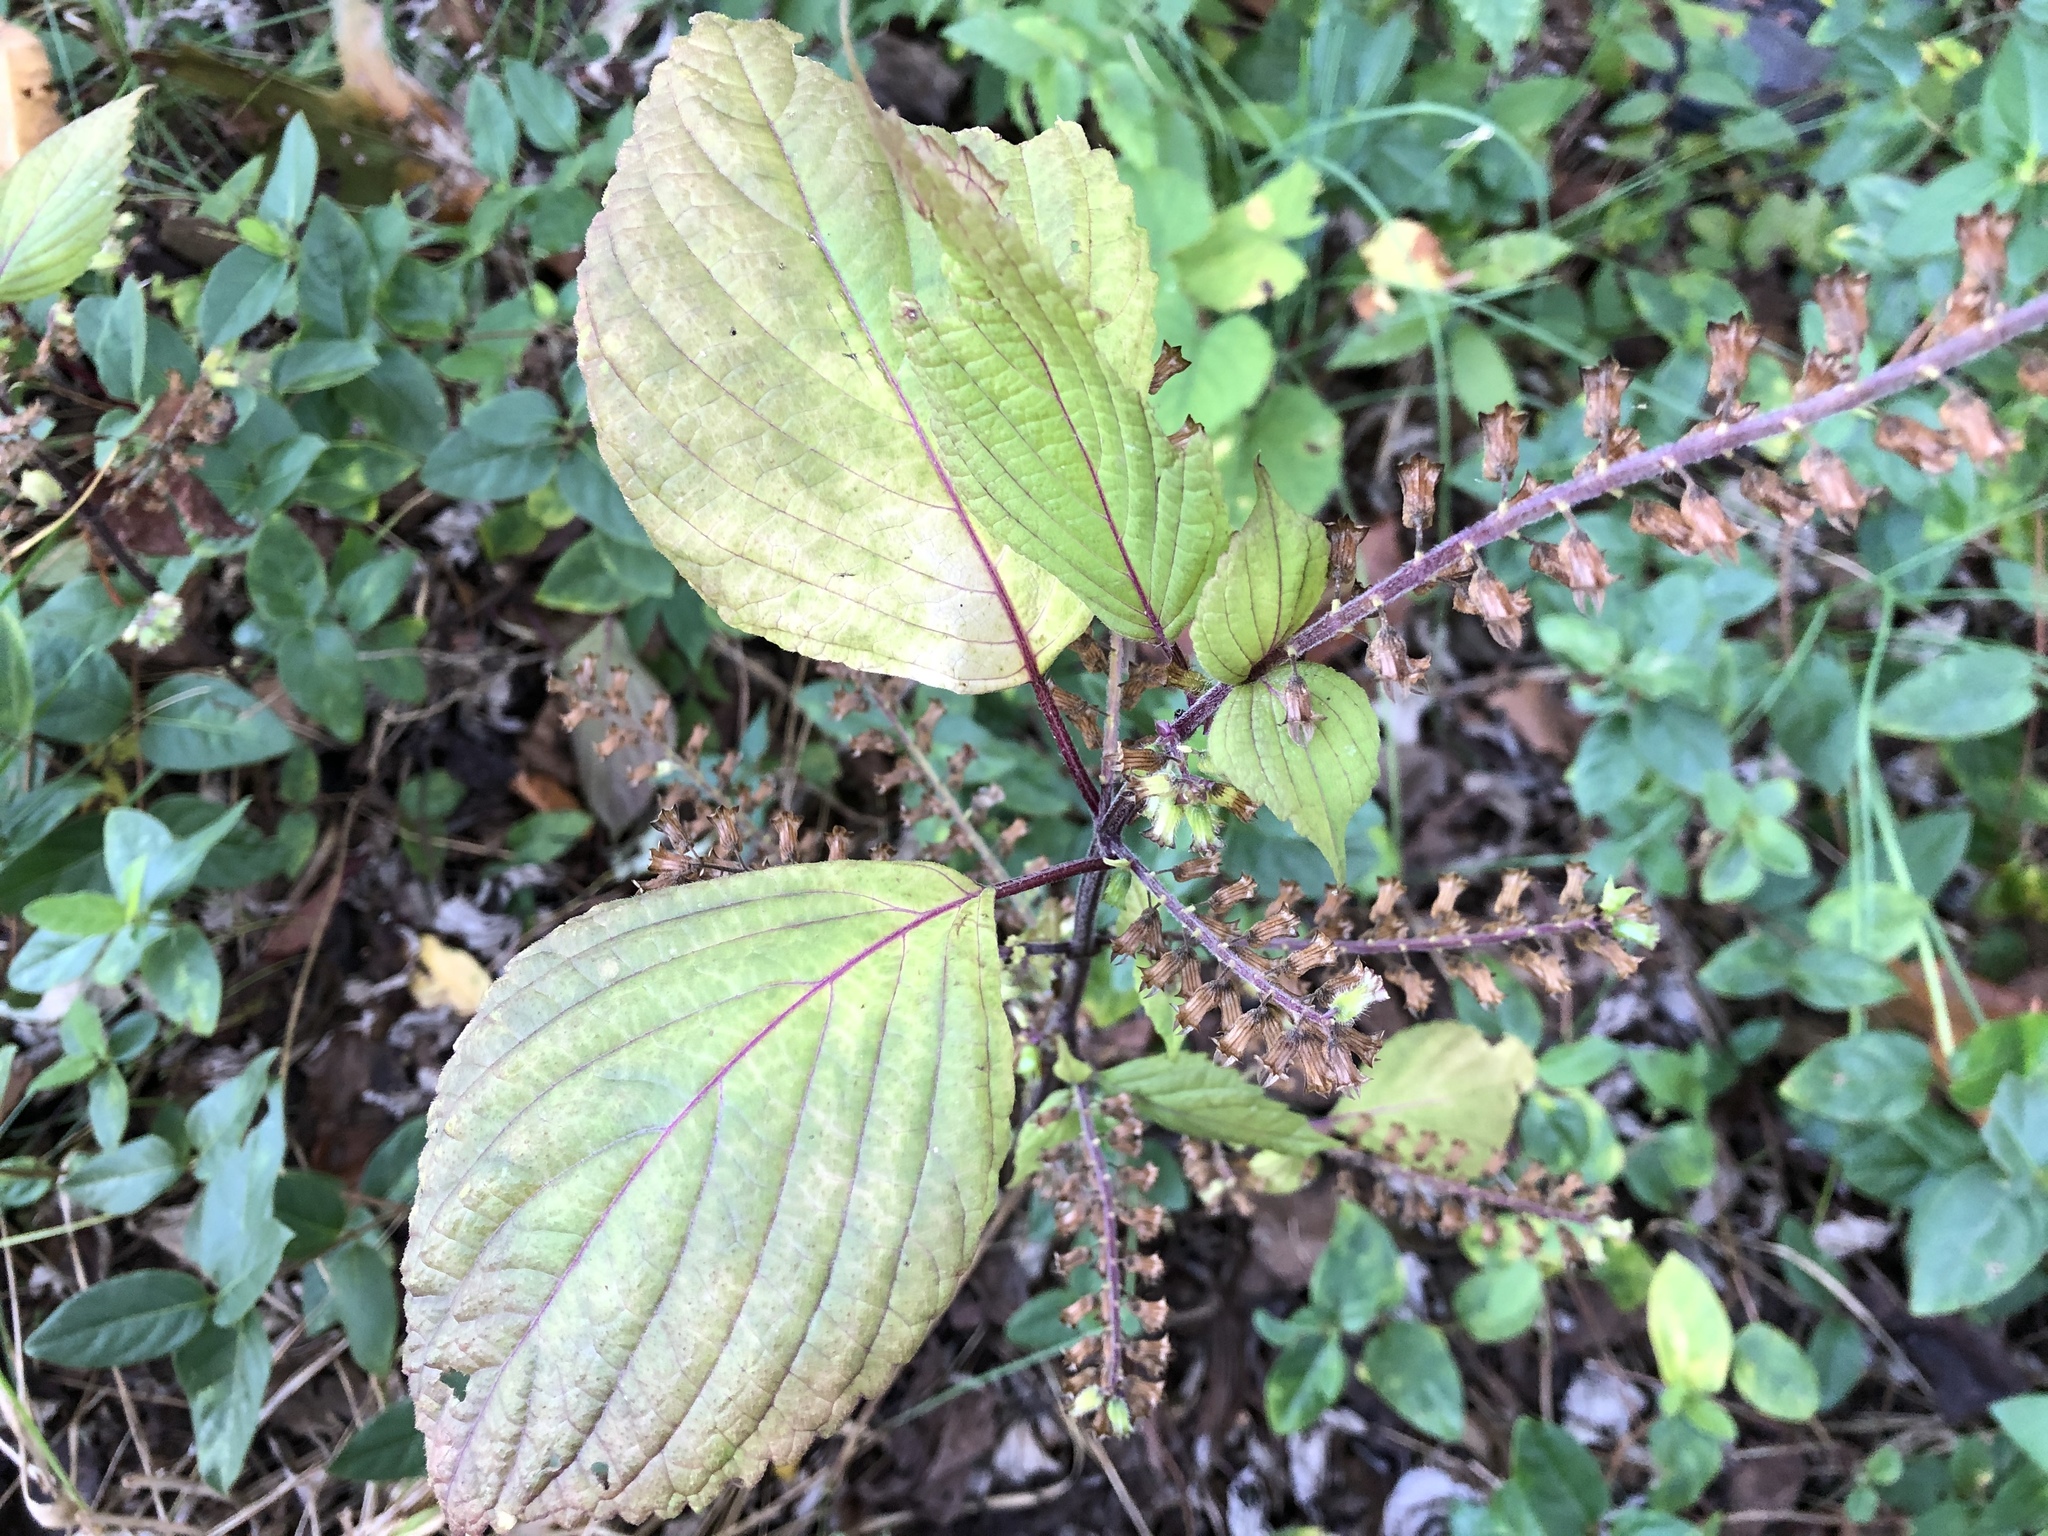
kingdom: Plantae
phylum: Tracheophyta
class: Magnoliopsida
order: Lamiales
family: Lamiaceae
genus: Perilla
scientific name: Perilla frutescens
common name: Perilla
